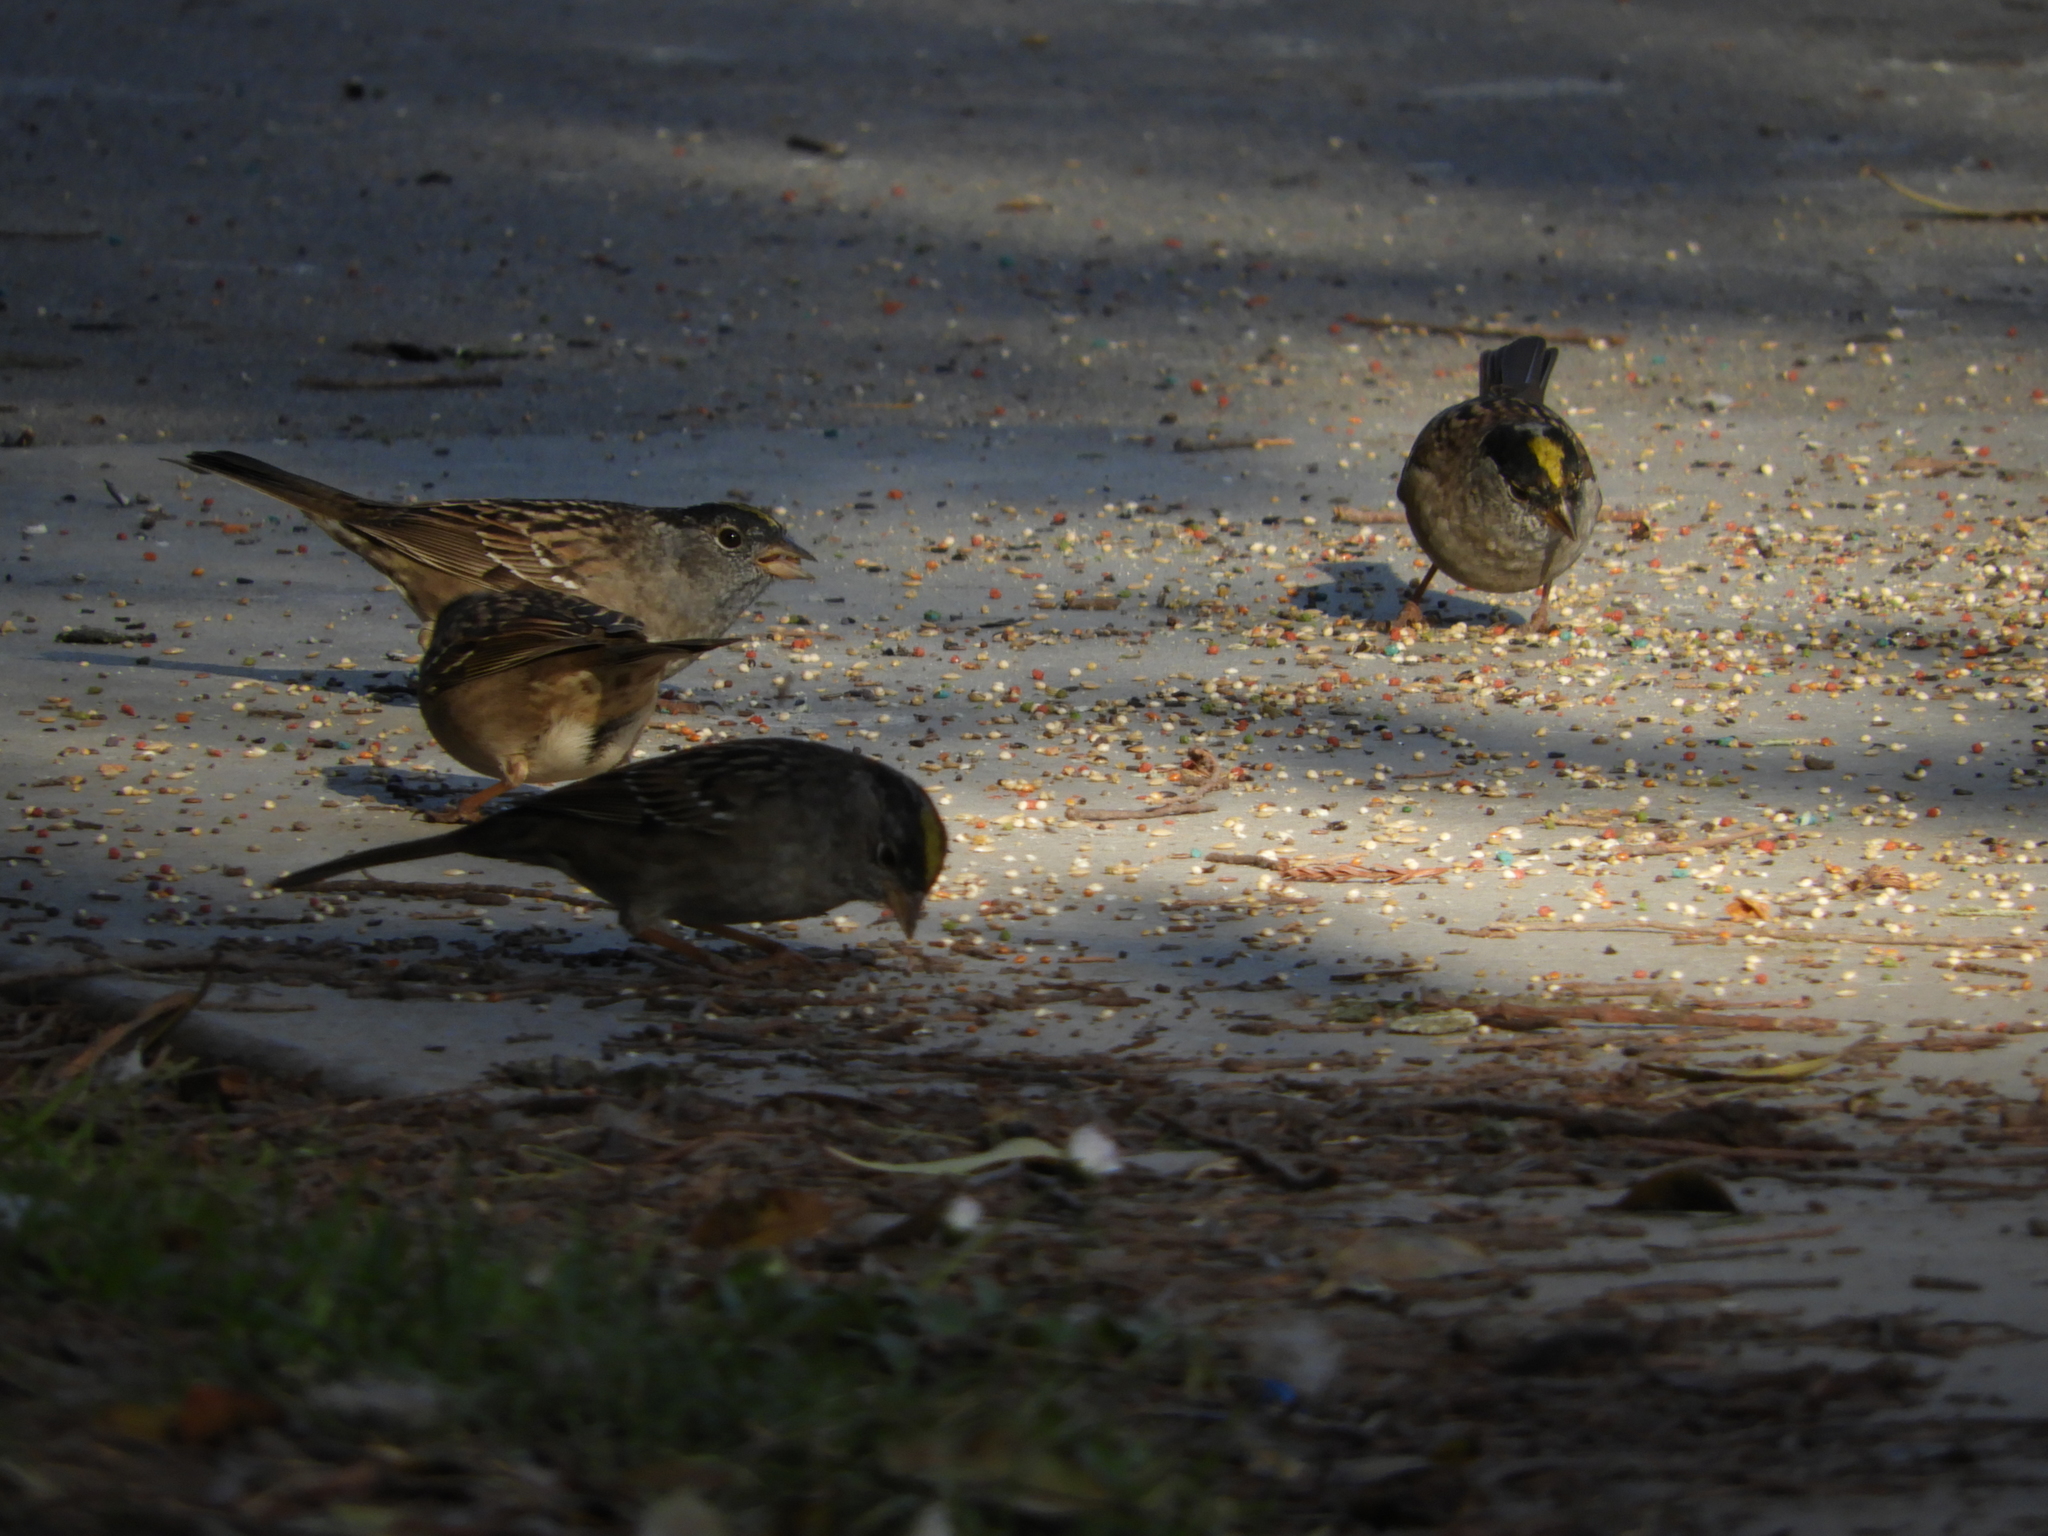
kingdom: Animalia
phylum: Chordata
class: Aves
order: Passeriformes
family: Passerellidae
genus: Zonotrichia
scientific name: Zonotrichia atricapilla
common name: Golden-crowned sparrow
